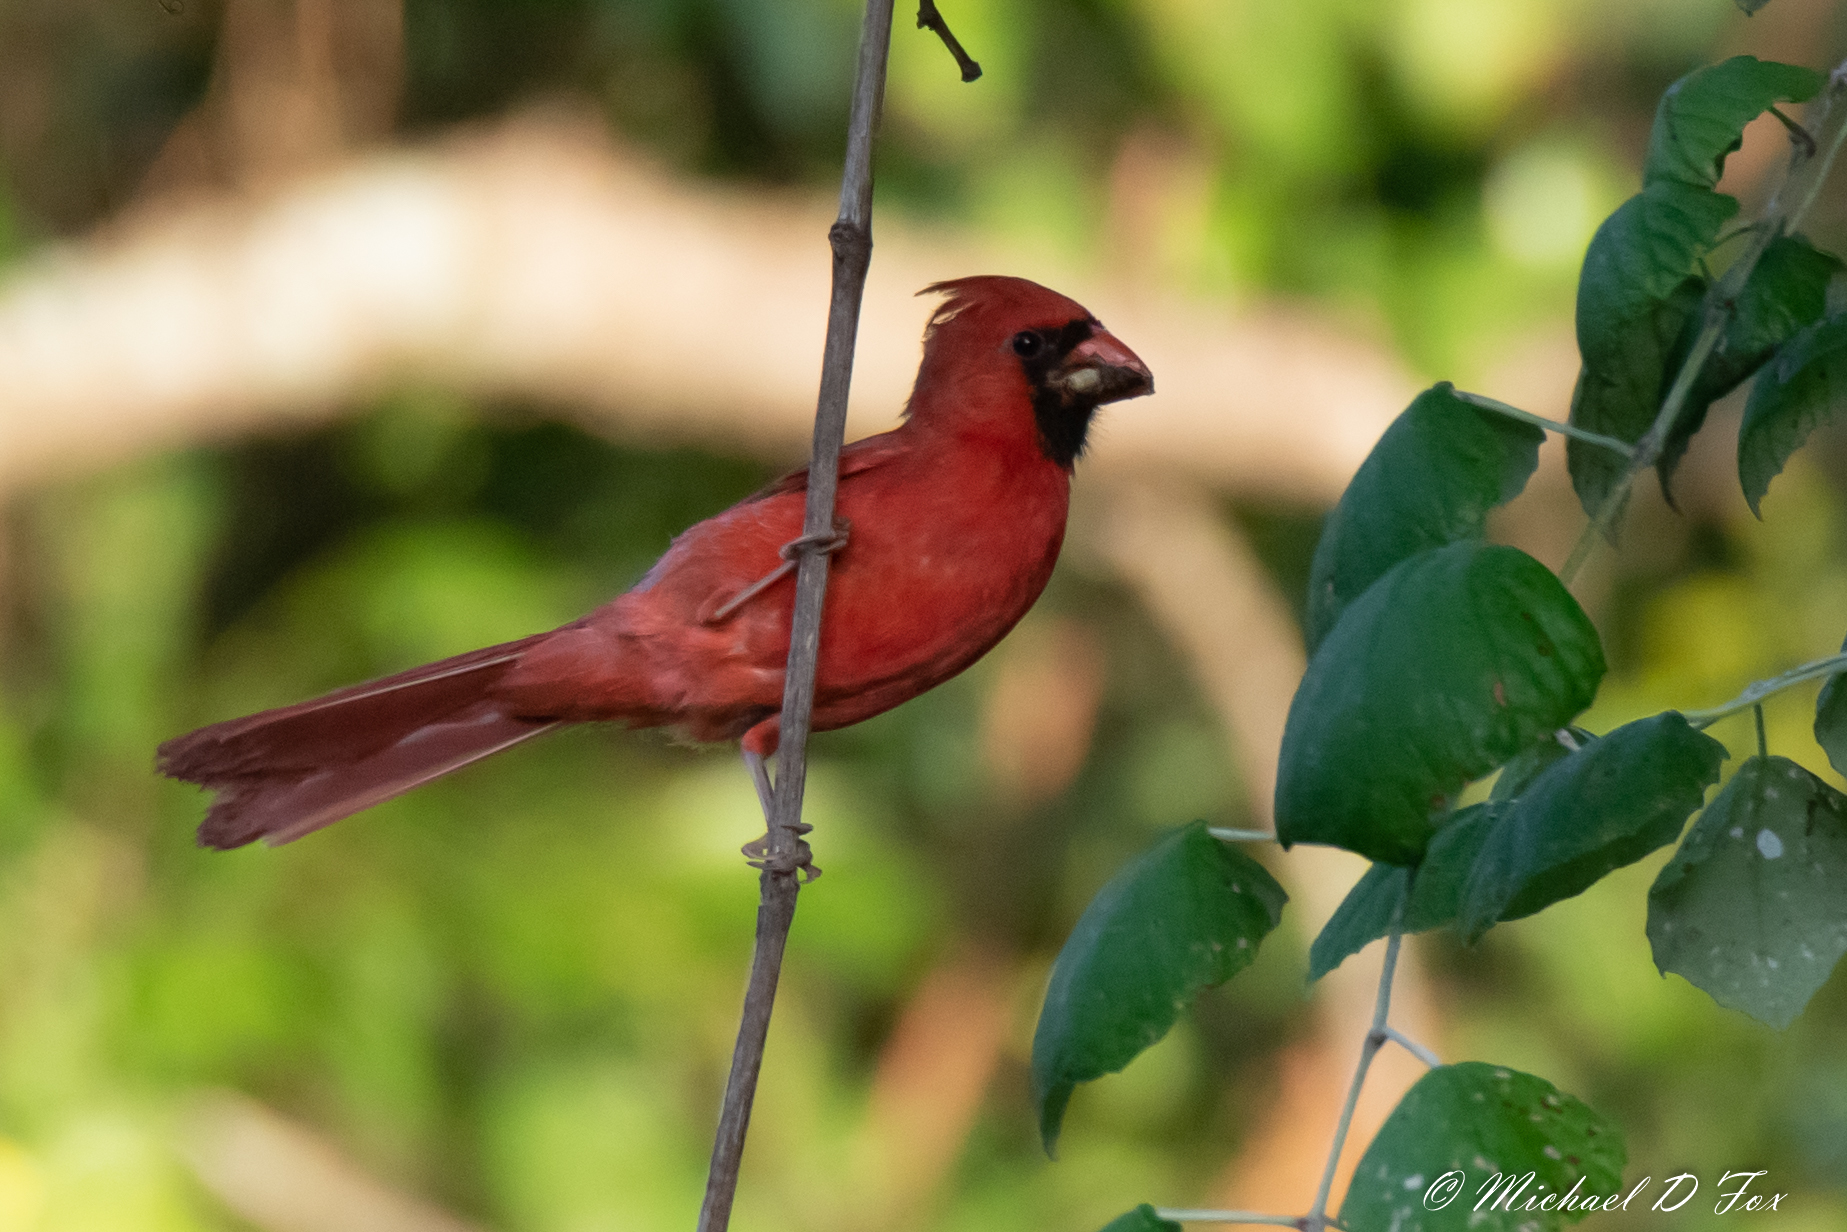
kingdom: Animalia
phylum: Chordata
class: Aves
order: Passeriformes
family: Cardinalidae
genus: Cardinalis
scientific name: Cardinalis cardinalis
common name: Northern cardinal
